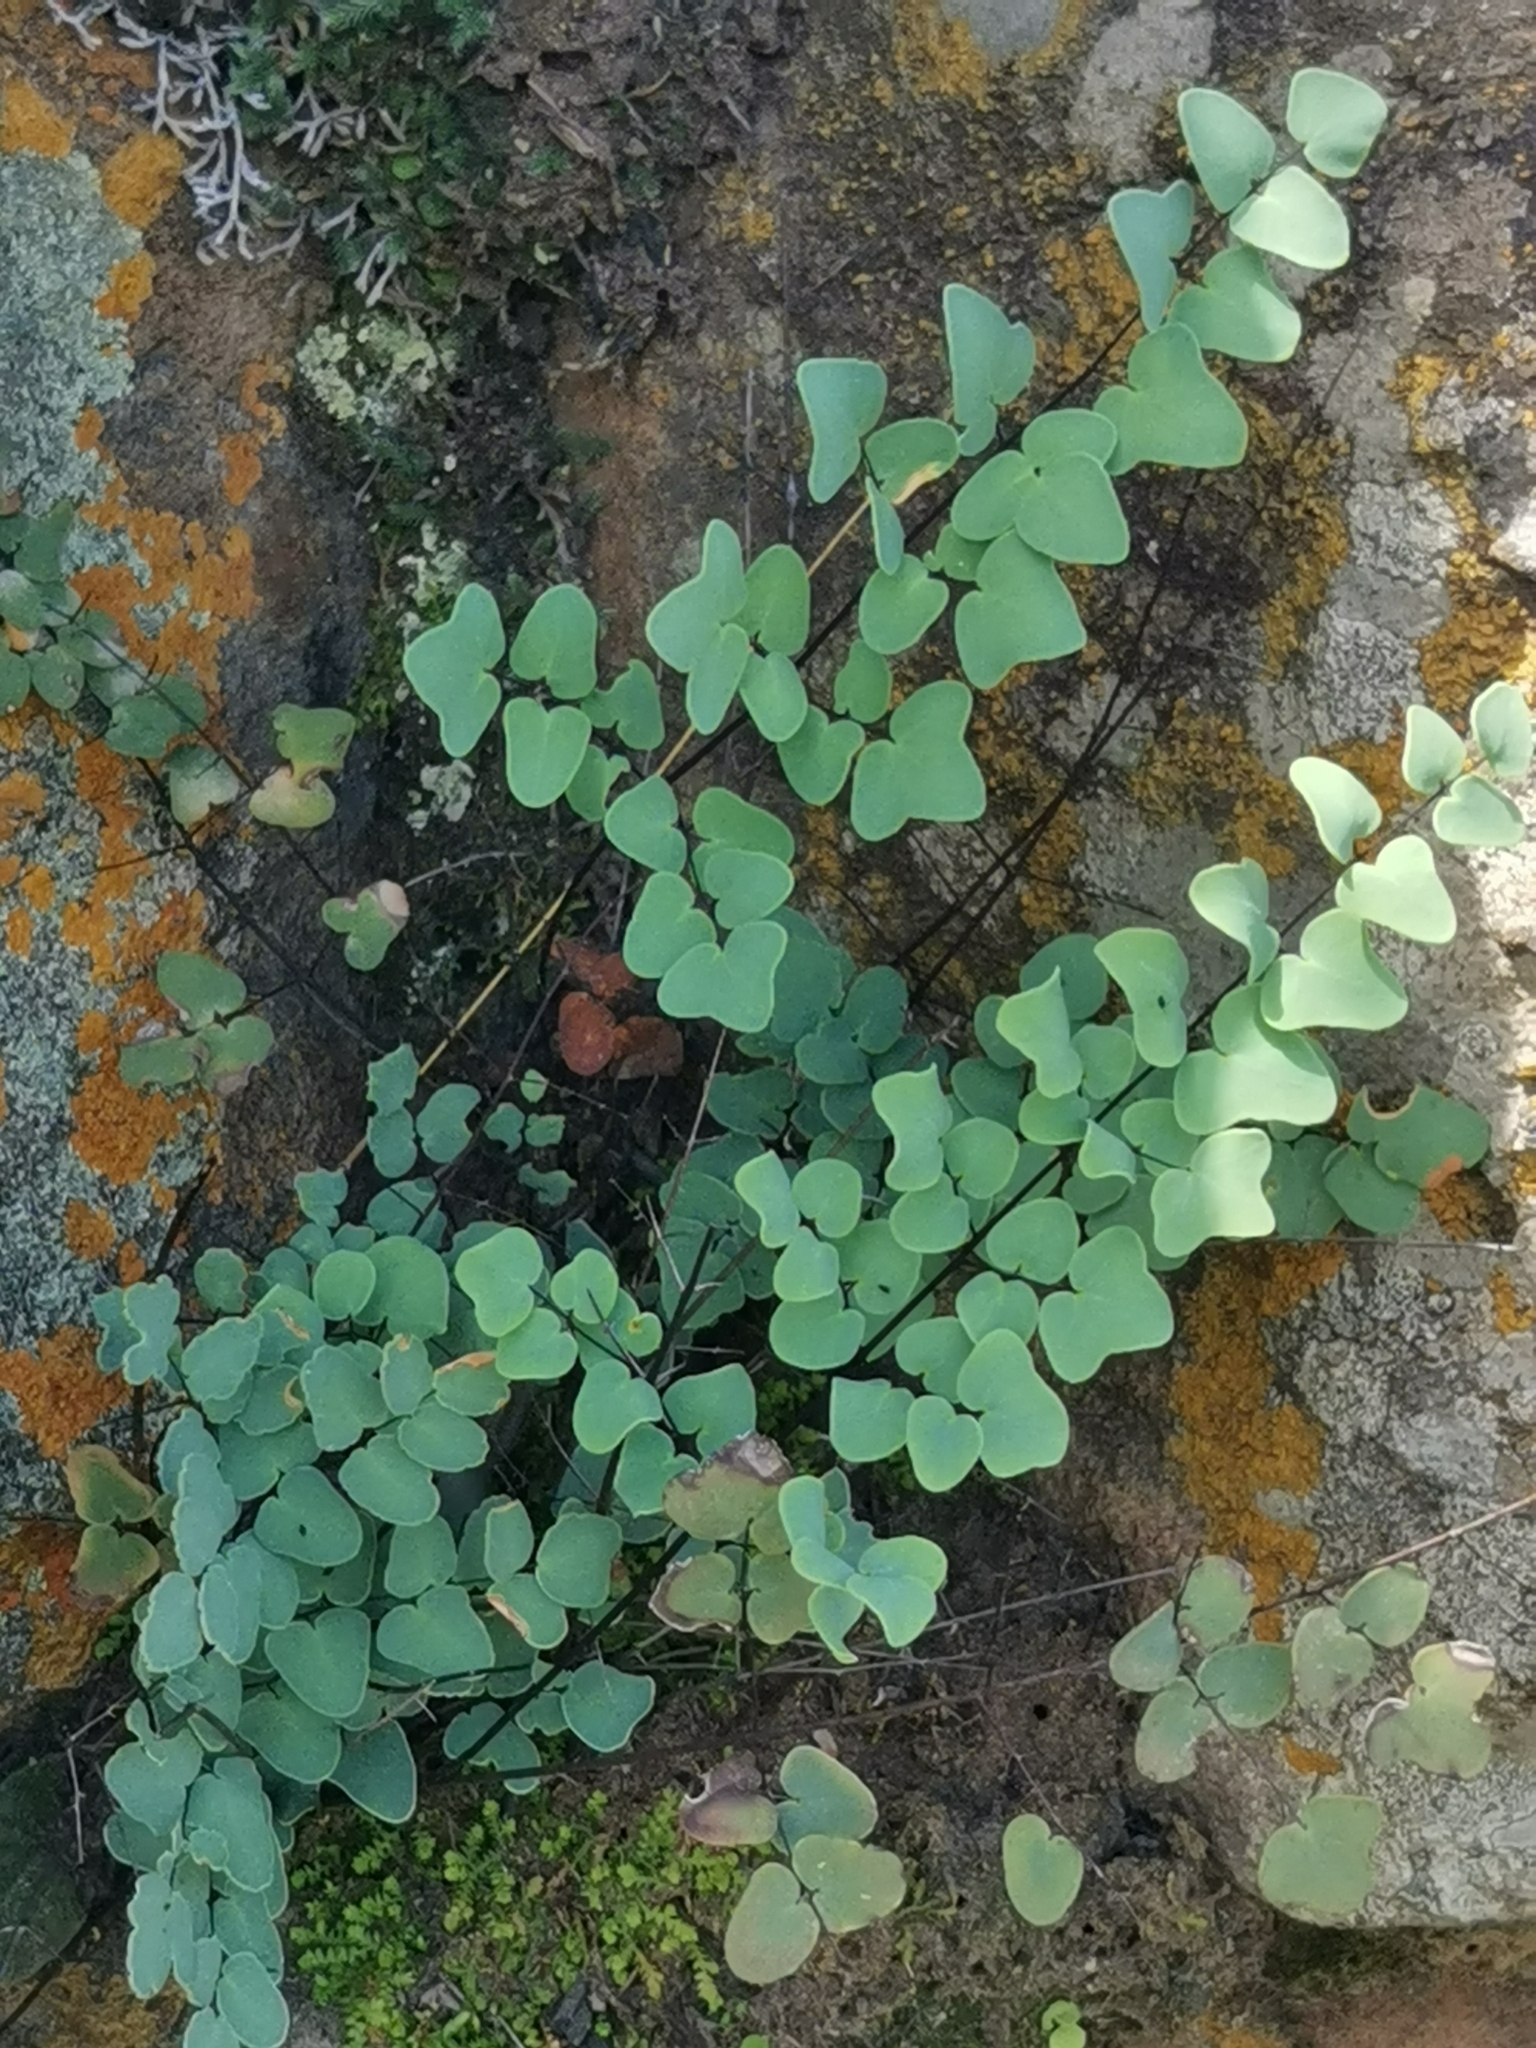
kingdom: Plantae
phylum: Tracheophyta
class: Polypodiopsida
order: Polypodiales
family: Pteridaceae
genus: Pellaea
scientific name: Pellaea calomelanos
